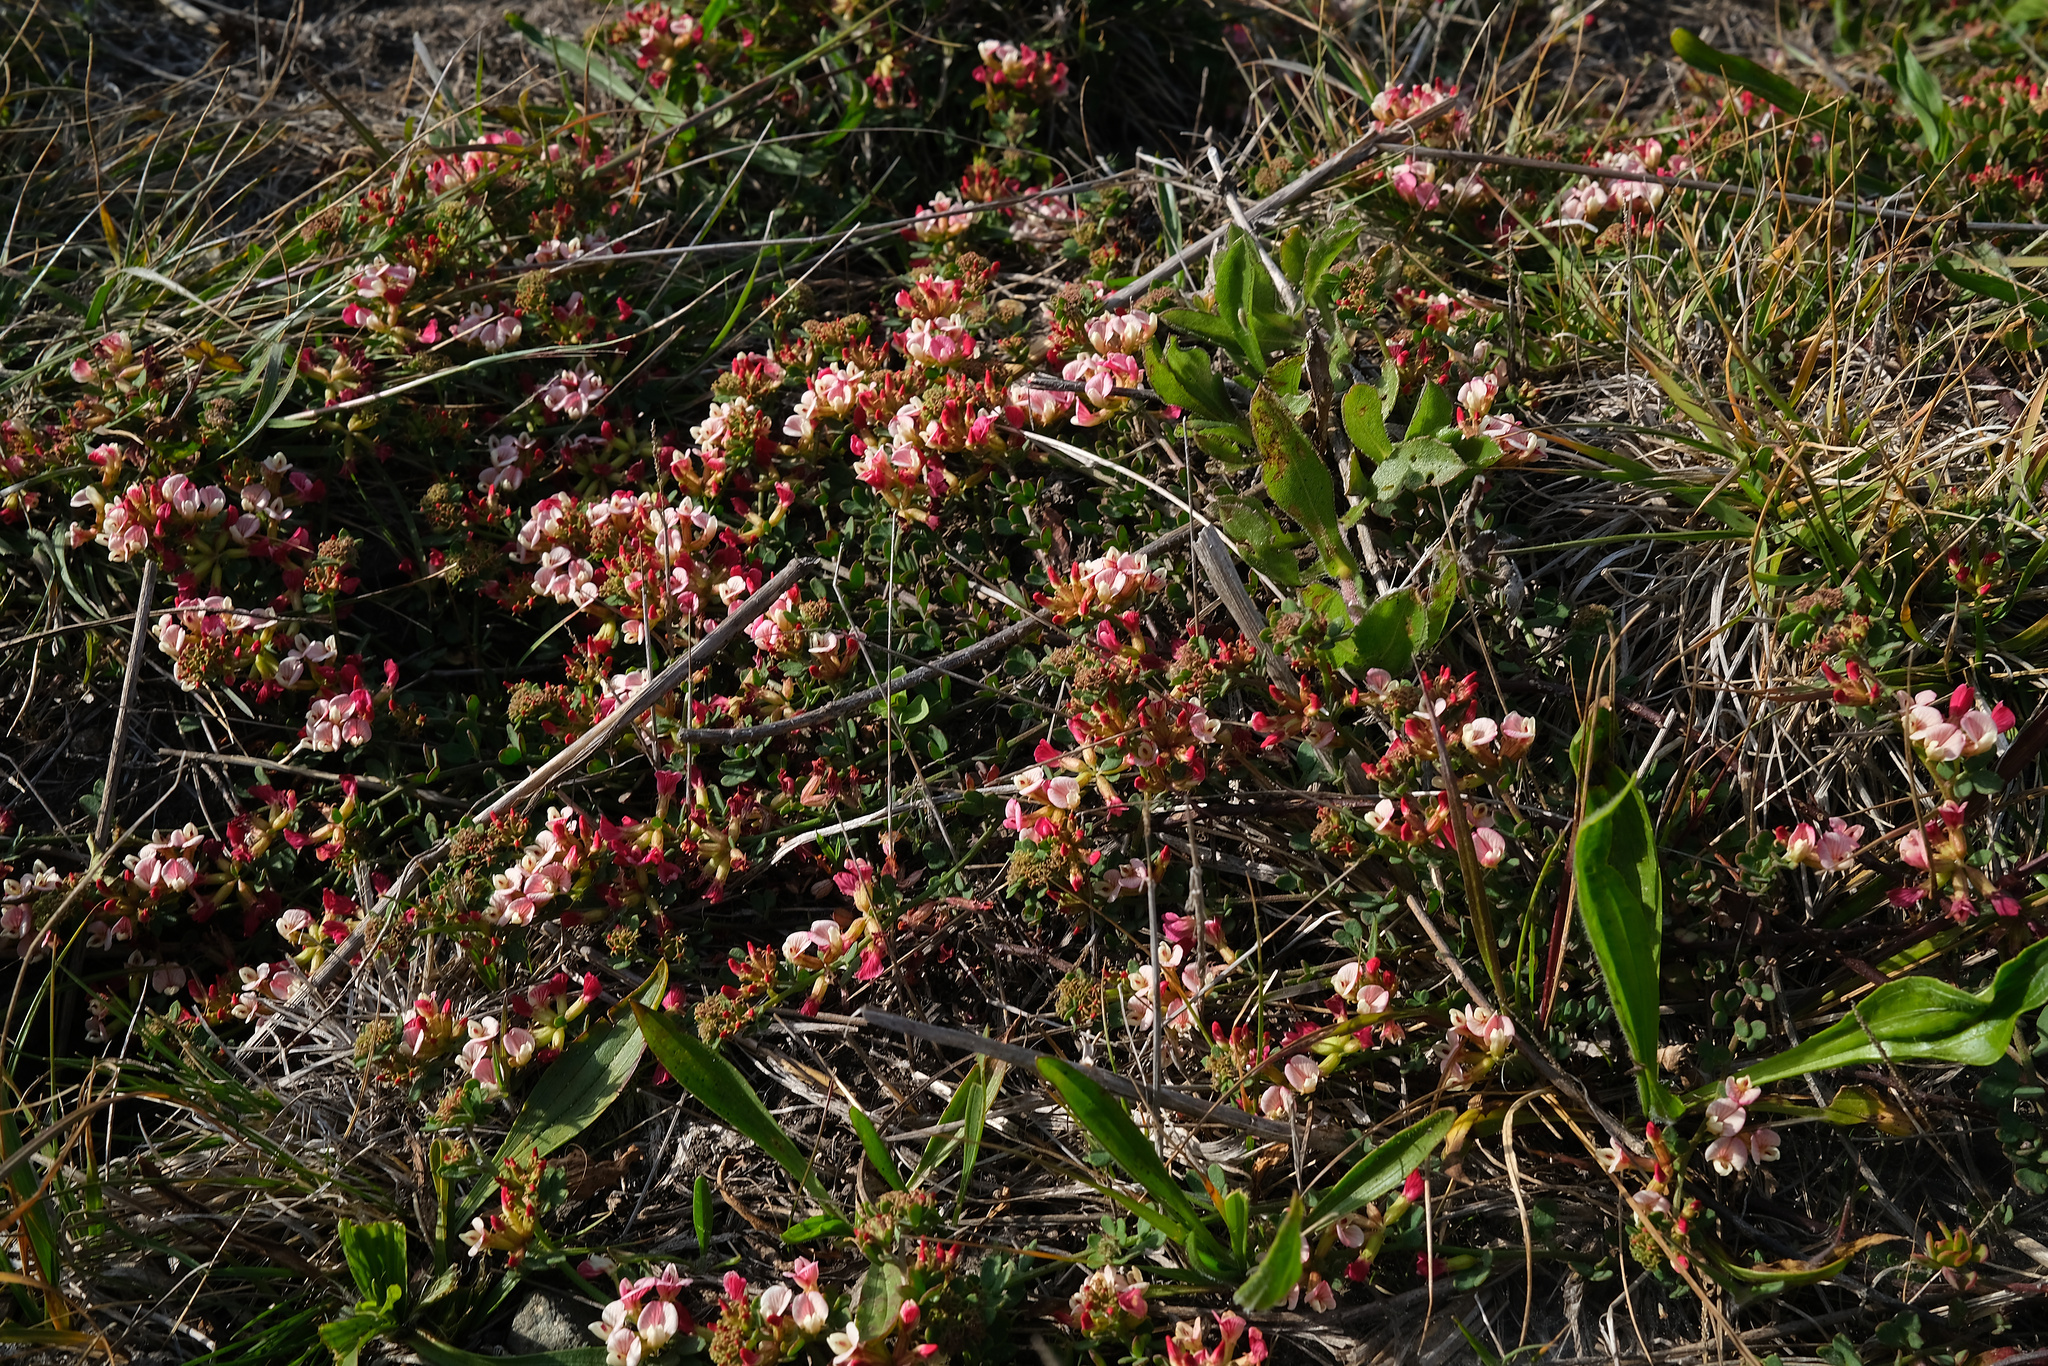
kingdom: Plantae
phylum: Tracheophyta
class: Magnoliopsida
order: Fabales
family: Fabaceae
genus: Acmispon
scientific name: Acmispon cytisoides
